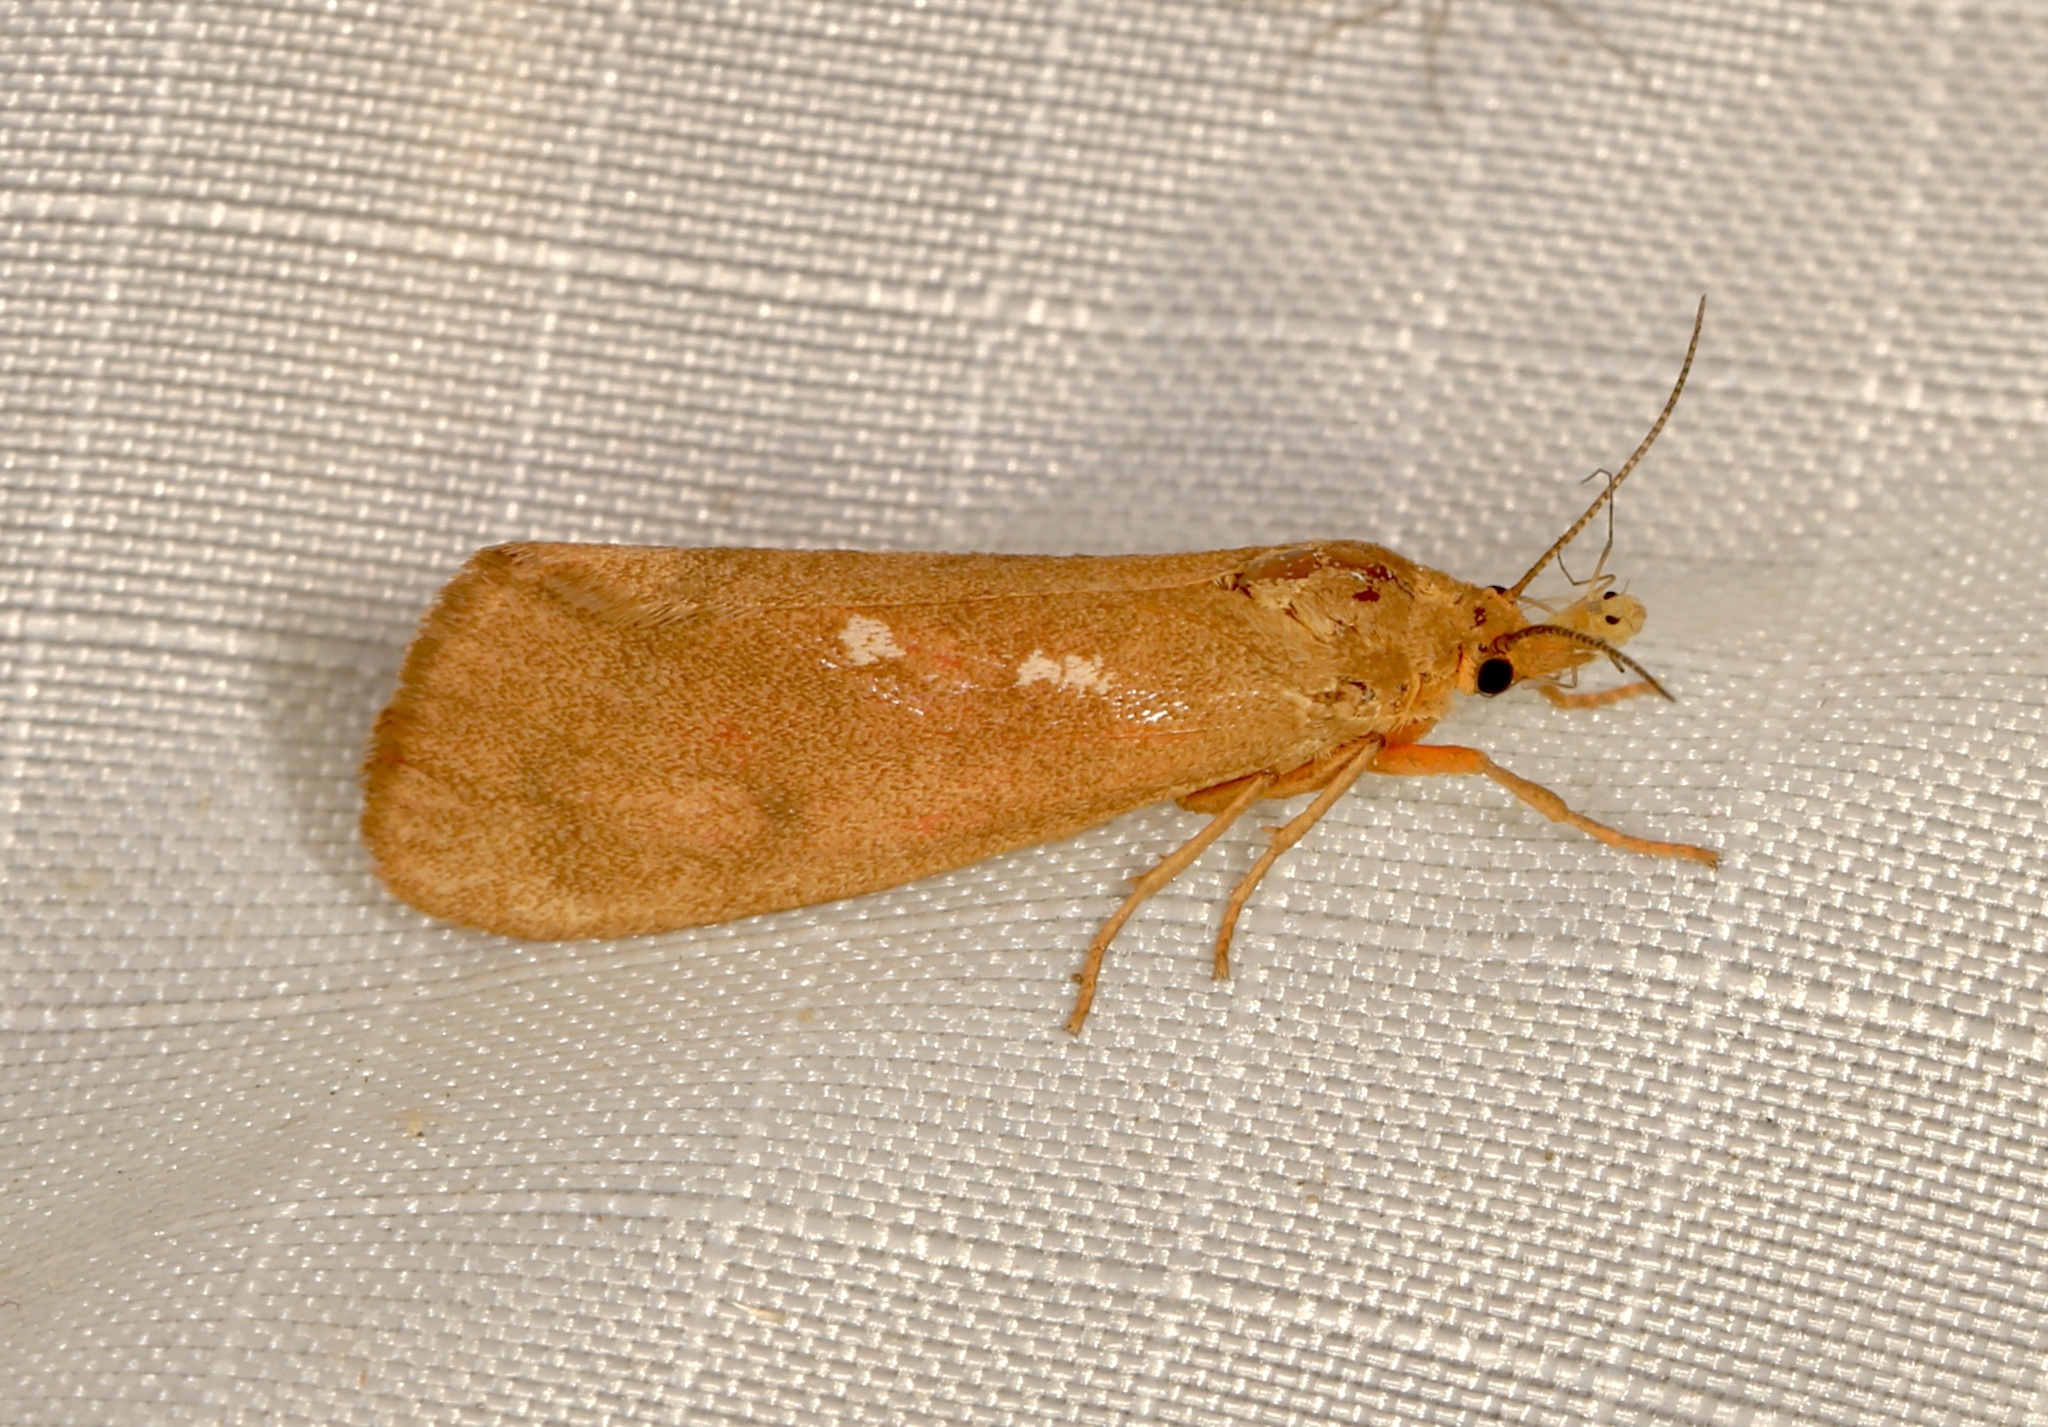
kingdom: Animalia
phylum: Arthropoda
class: Insecta
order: Lepidoptera
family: Erebidae
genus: Virbia
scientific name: Virbia aurantiaca
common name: Orange virbia moth
